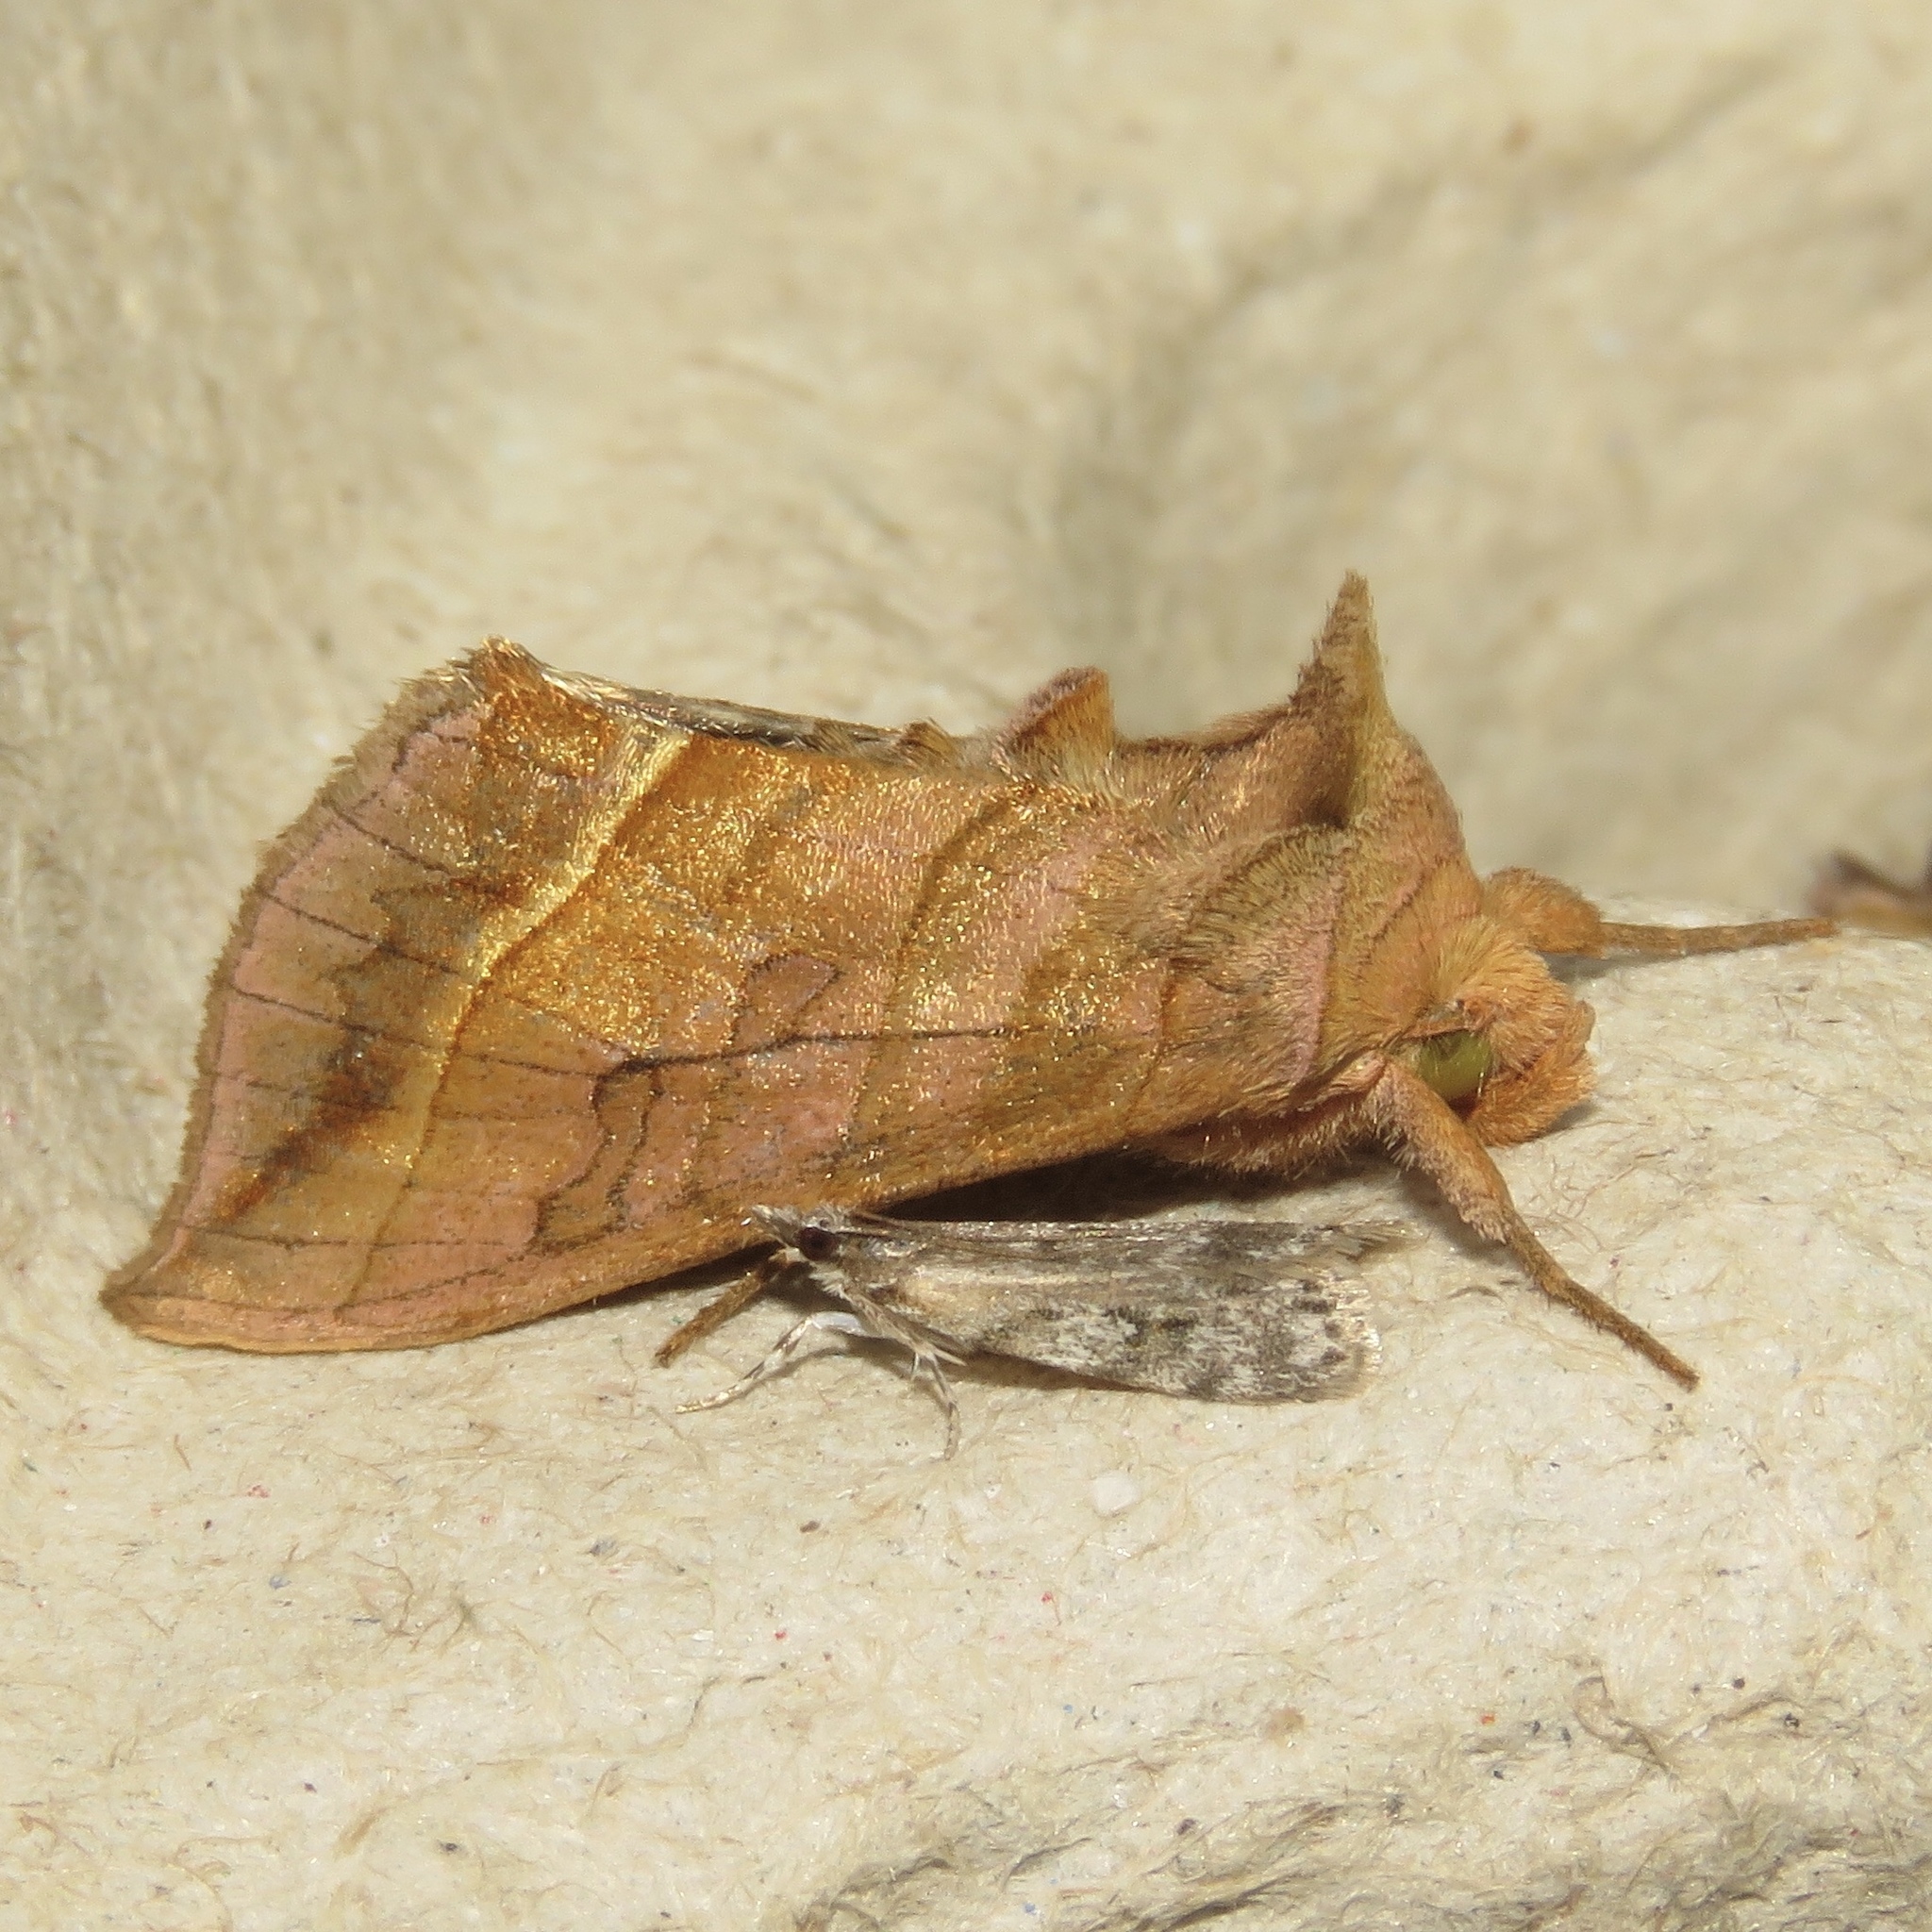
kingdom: Animalia
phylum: Arthropoda
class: Insecta
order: Lepidoptera
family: Noctuidae
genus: Diachrysia
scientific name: Diachrysia aereoides
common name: Dark-spotted looper moth
